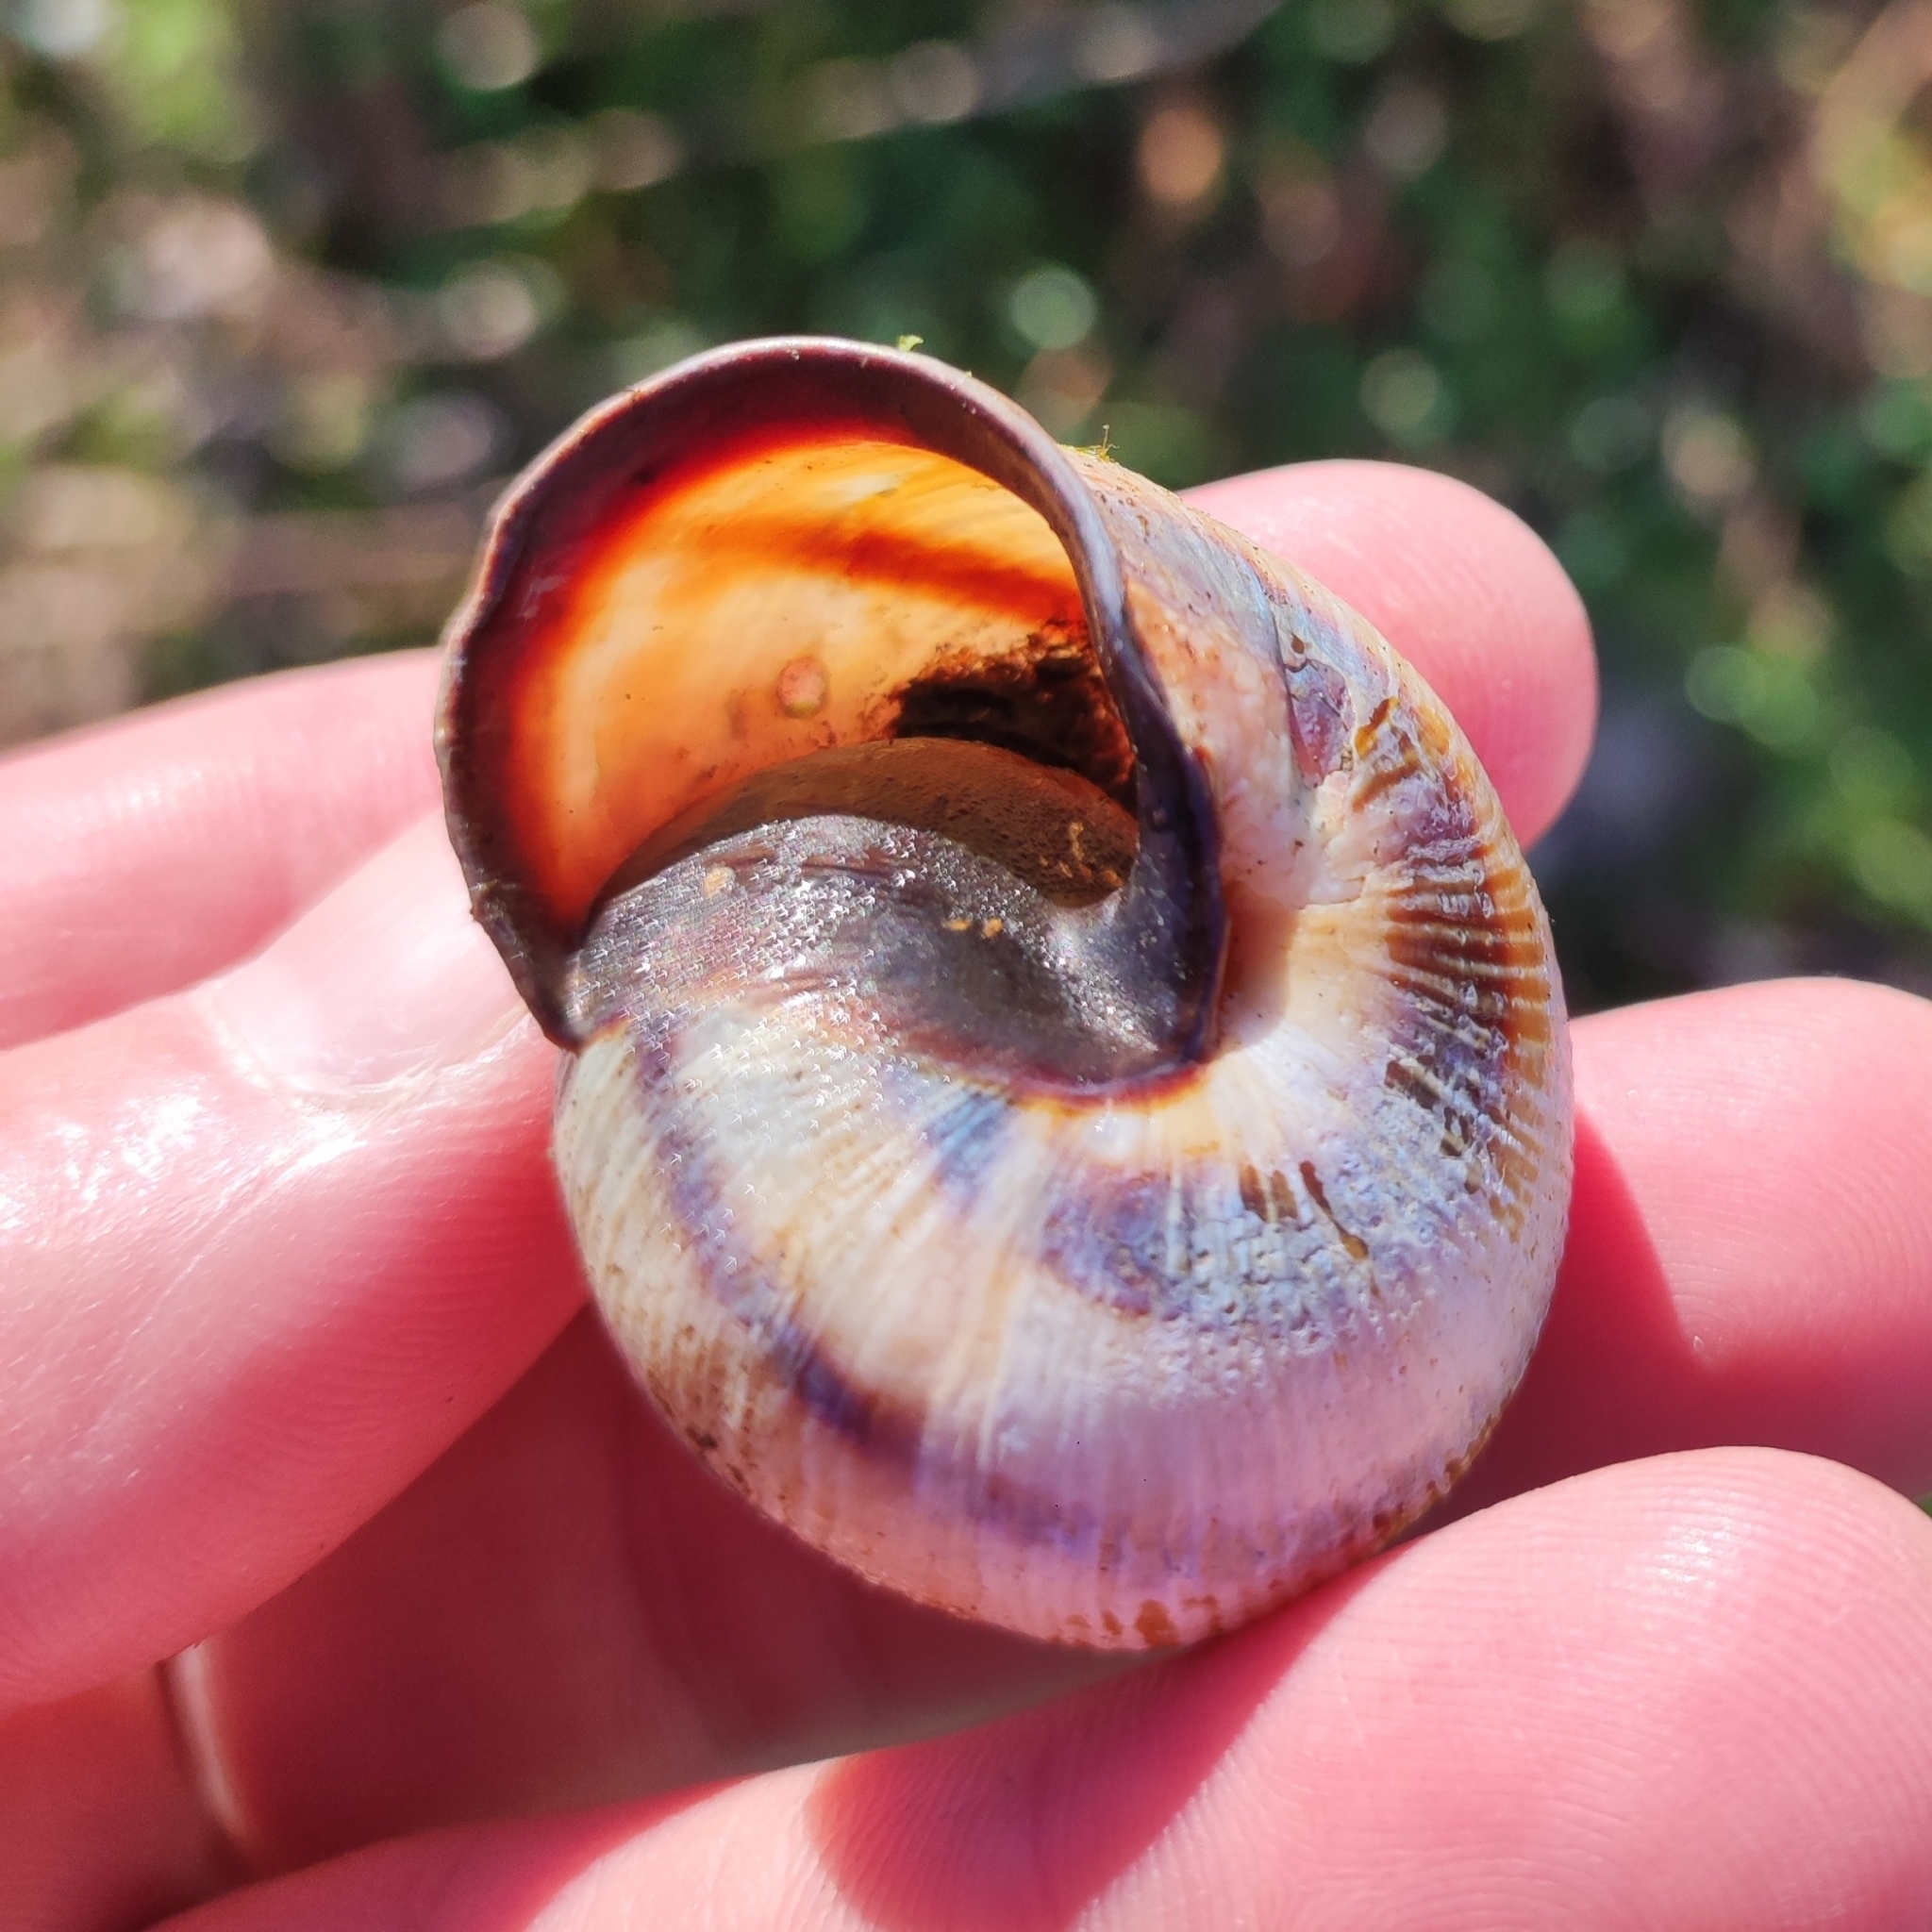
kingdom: Animalia
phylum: Mollusca
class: Gastropoda
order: Stylommatophora
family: Helicidae
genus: Caucasotachea
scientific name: Caucasotachea atrolabiata
